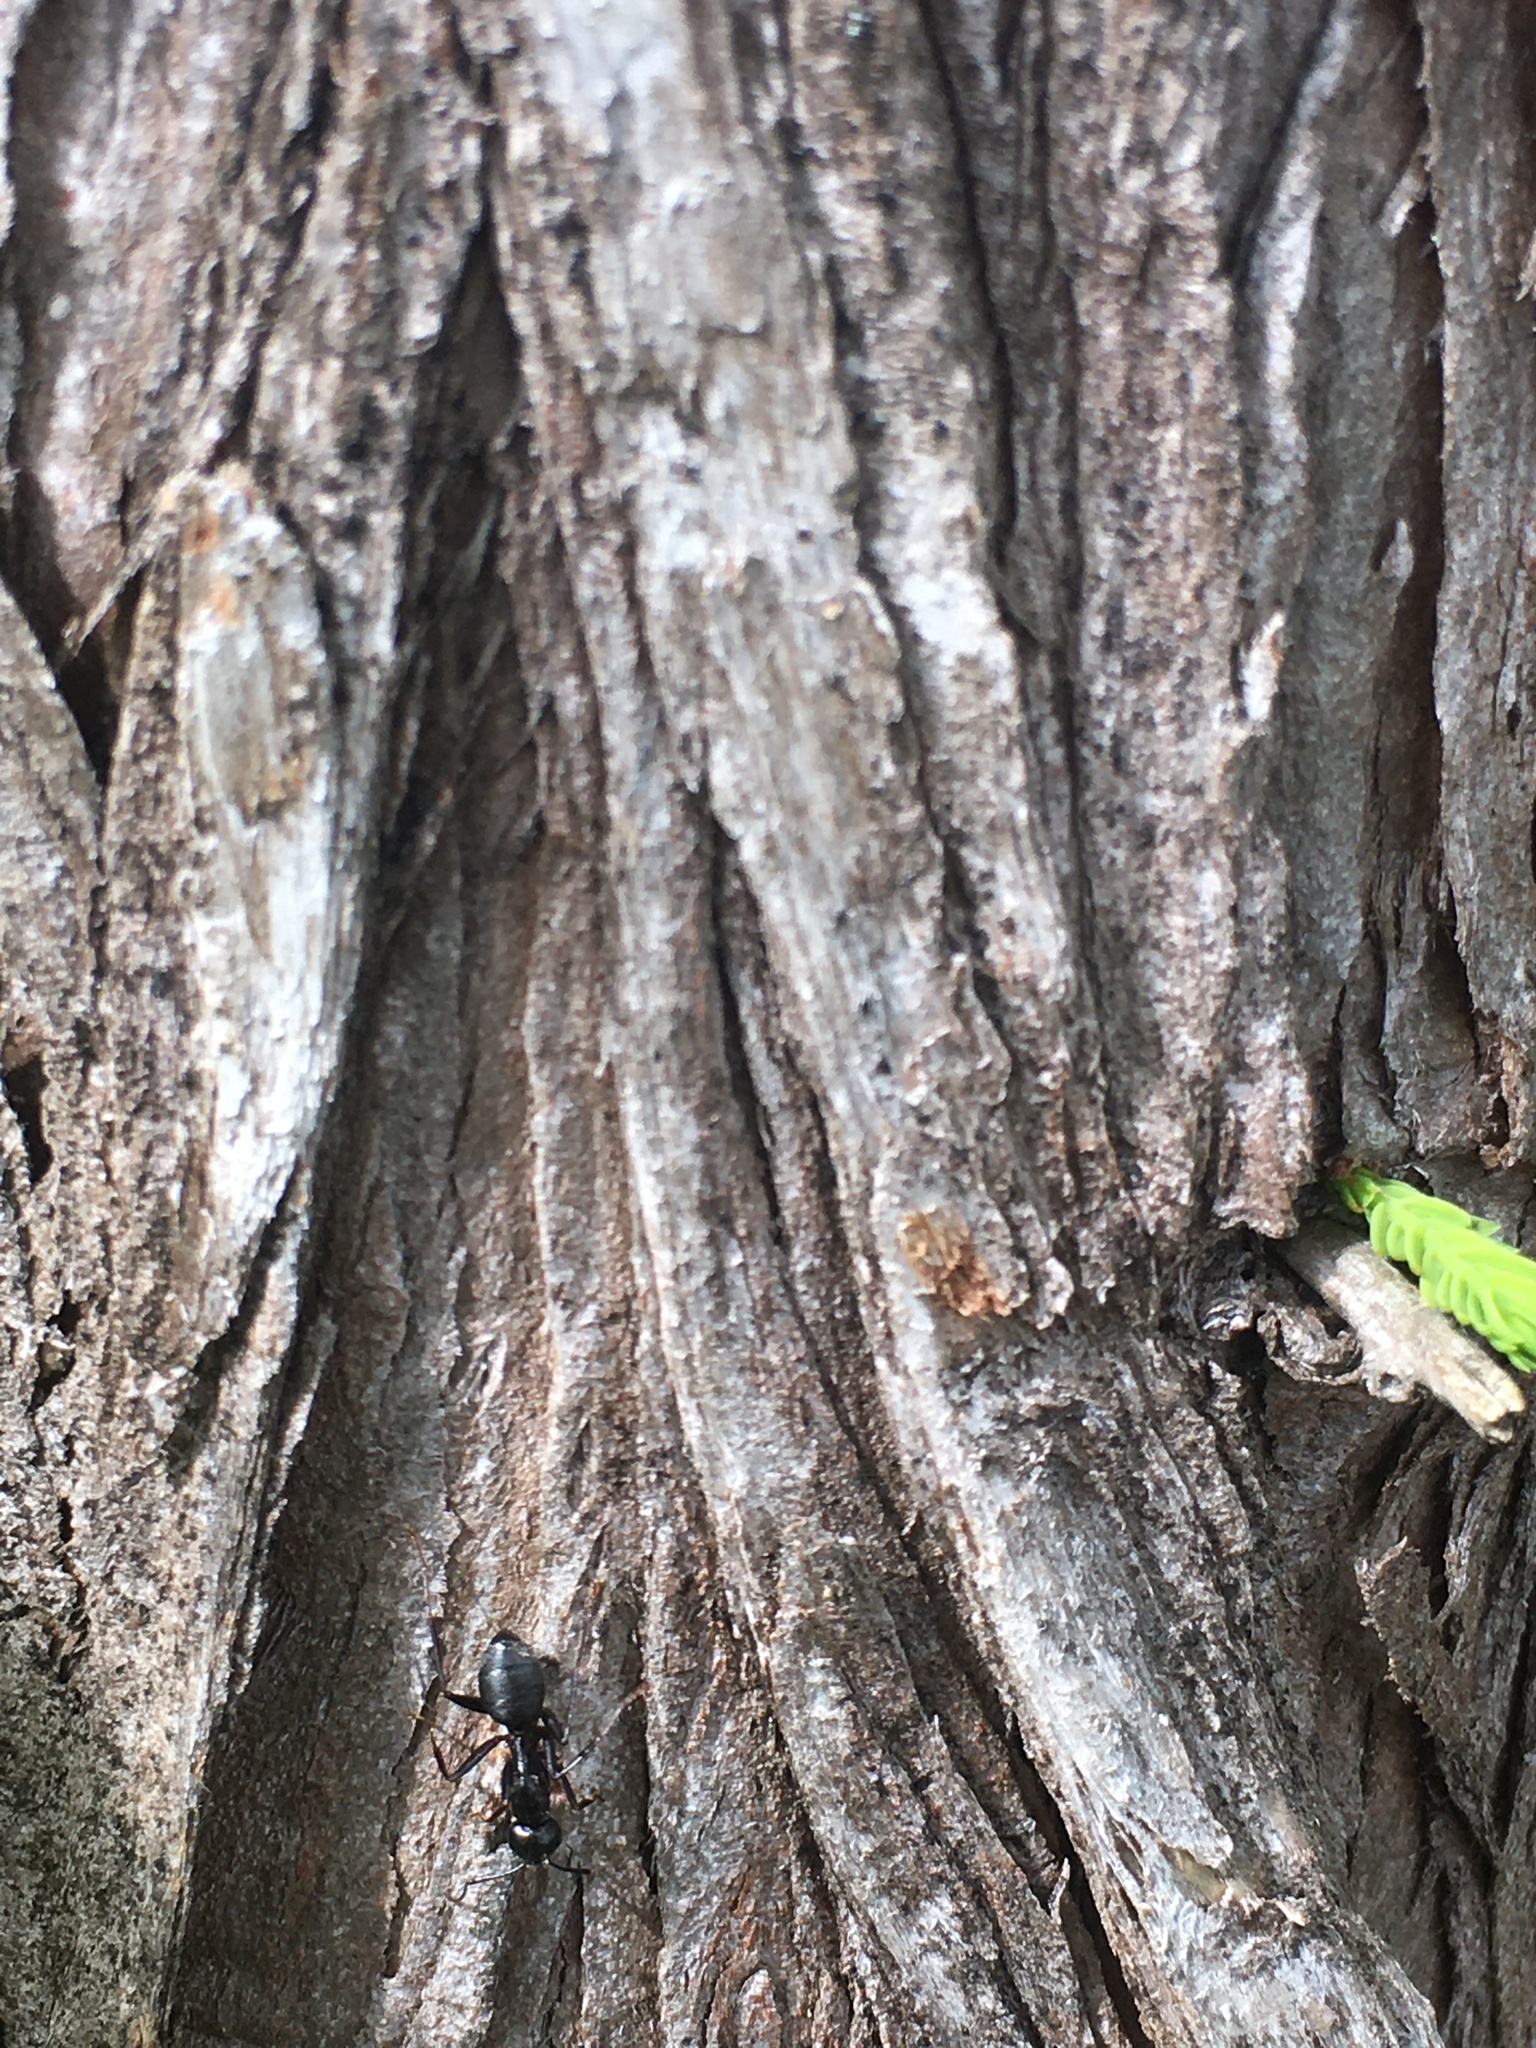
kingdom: Animalia
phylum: Arthropoda
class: Insecta
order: Hymenoptera
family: Formicidae
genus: Camponotus
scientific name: Camponotus pennsylvanicus
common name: Black carpenter ant
